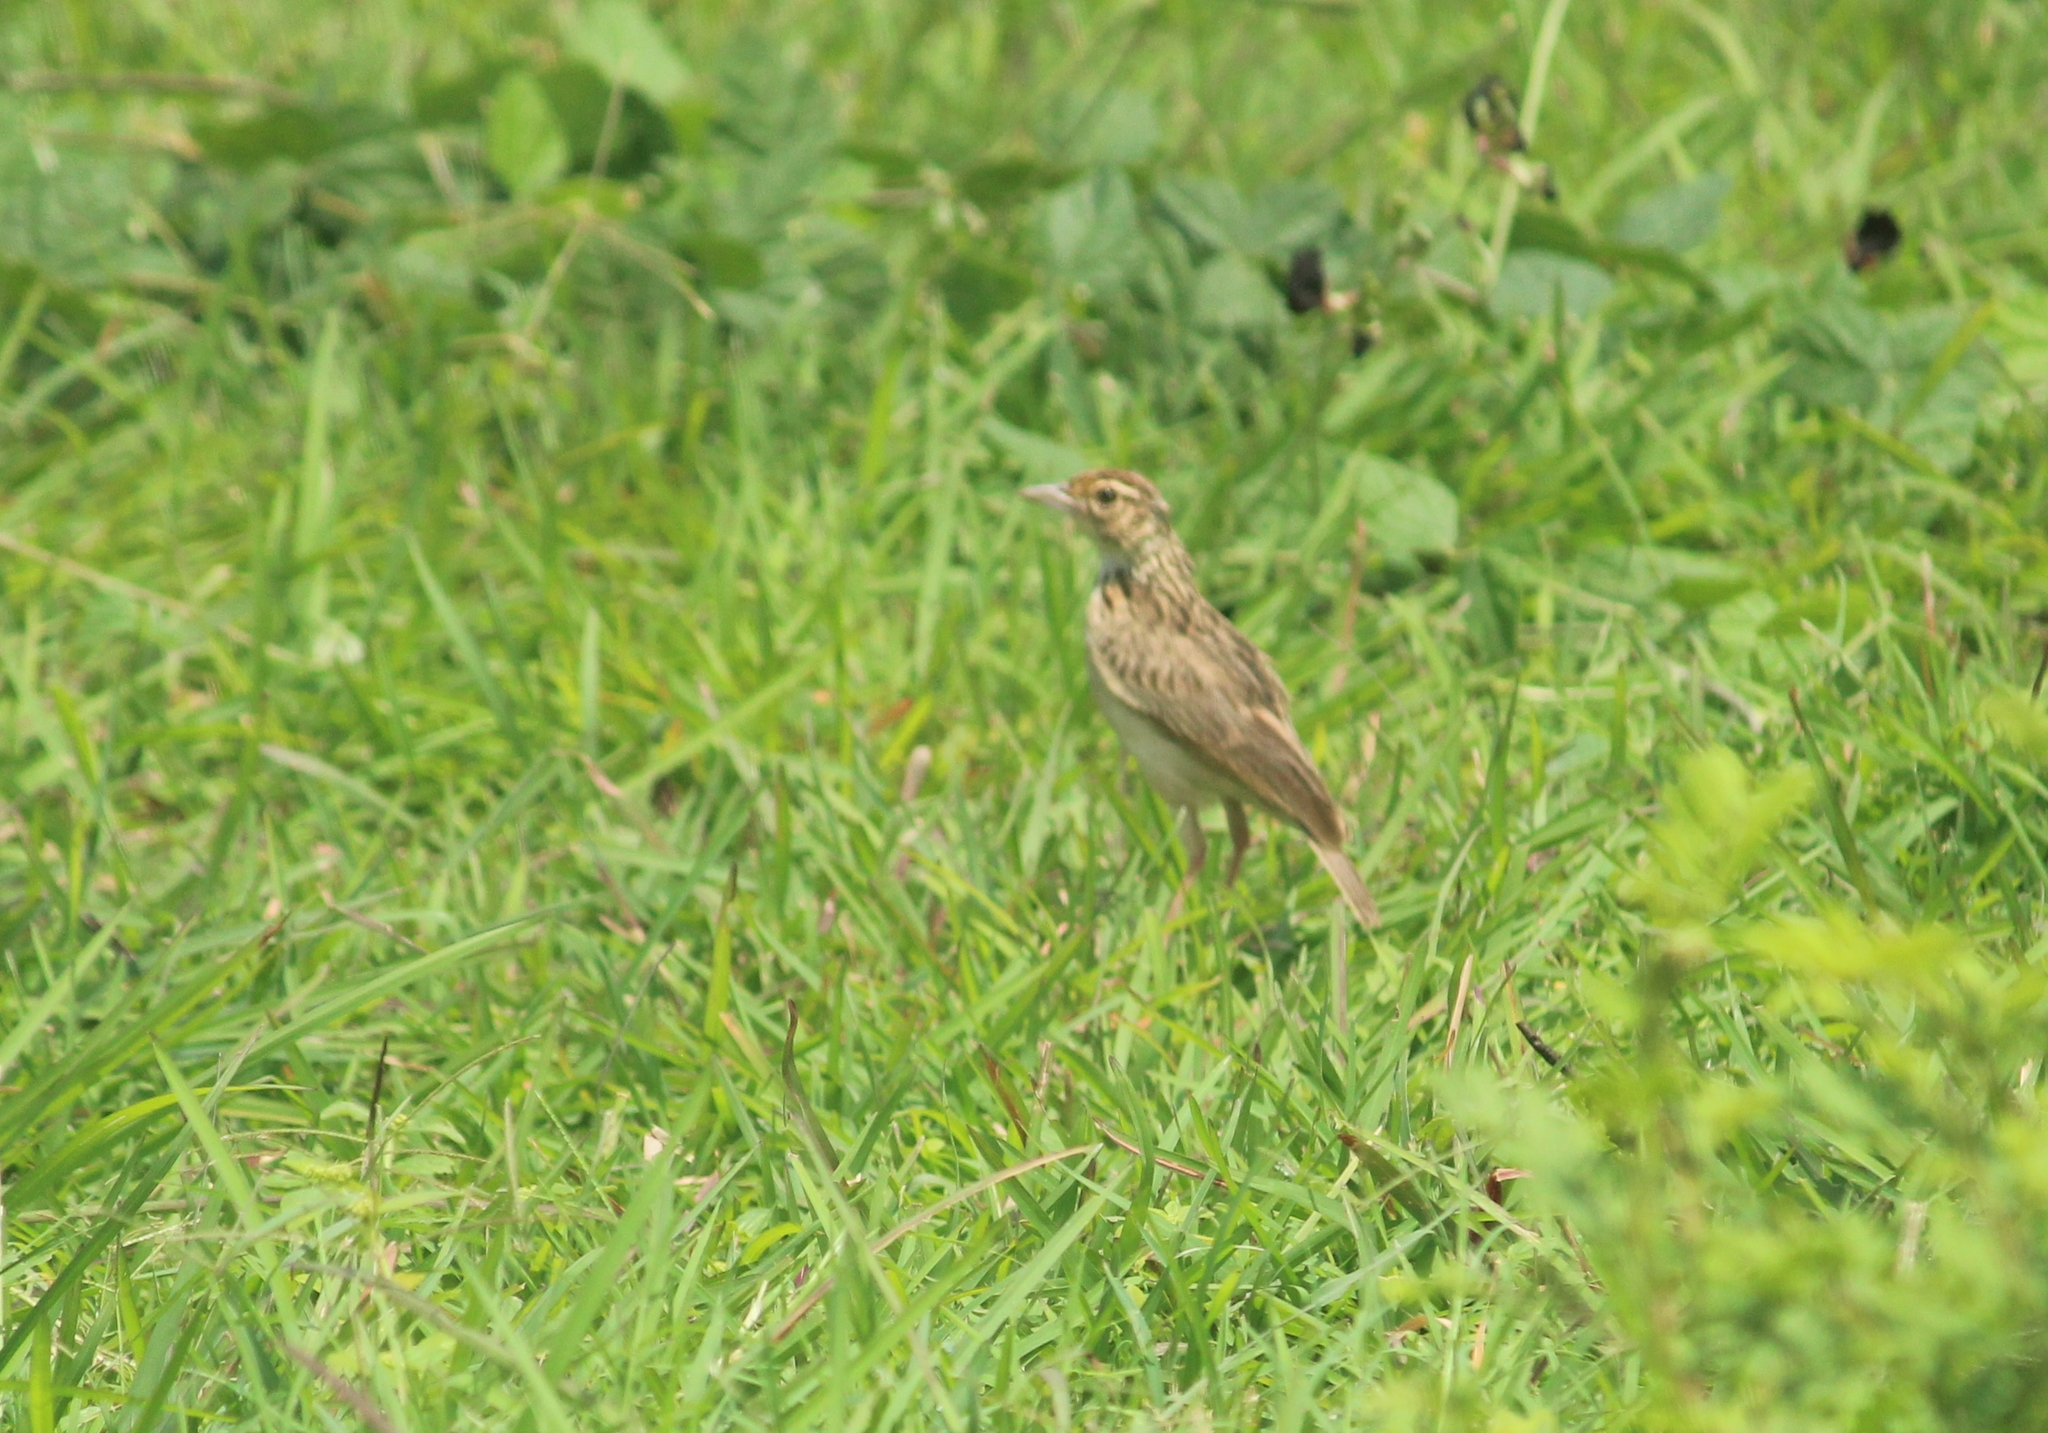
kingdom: Animalia
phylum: Chordata
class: Aves
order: Passeriformes
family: Alaudidae
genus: Mirafra
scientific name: Mirafra affinis
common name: Jerdon's bushlark
